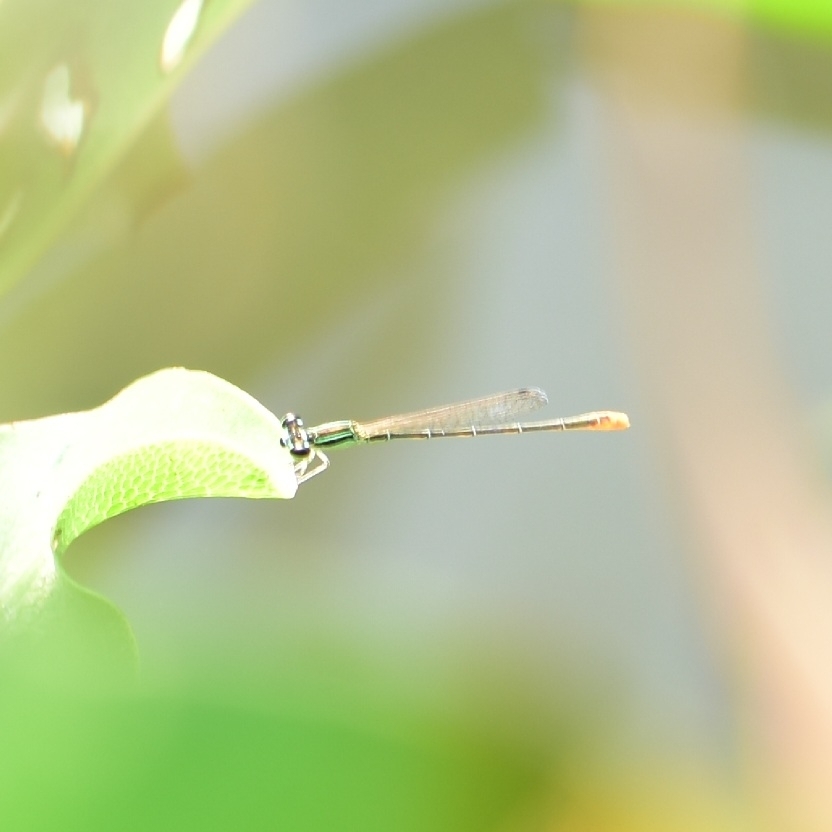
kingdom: Animalia
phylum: Arthropoda
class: Insecta
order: Odonata
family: Coenagrionidae
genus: Agriocnemis
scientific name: Agriocnemis pygmaea
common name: Pygmy wisp
